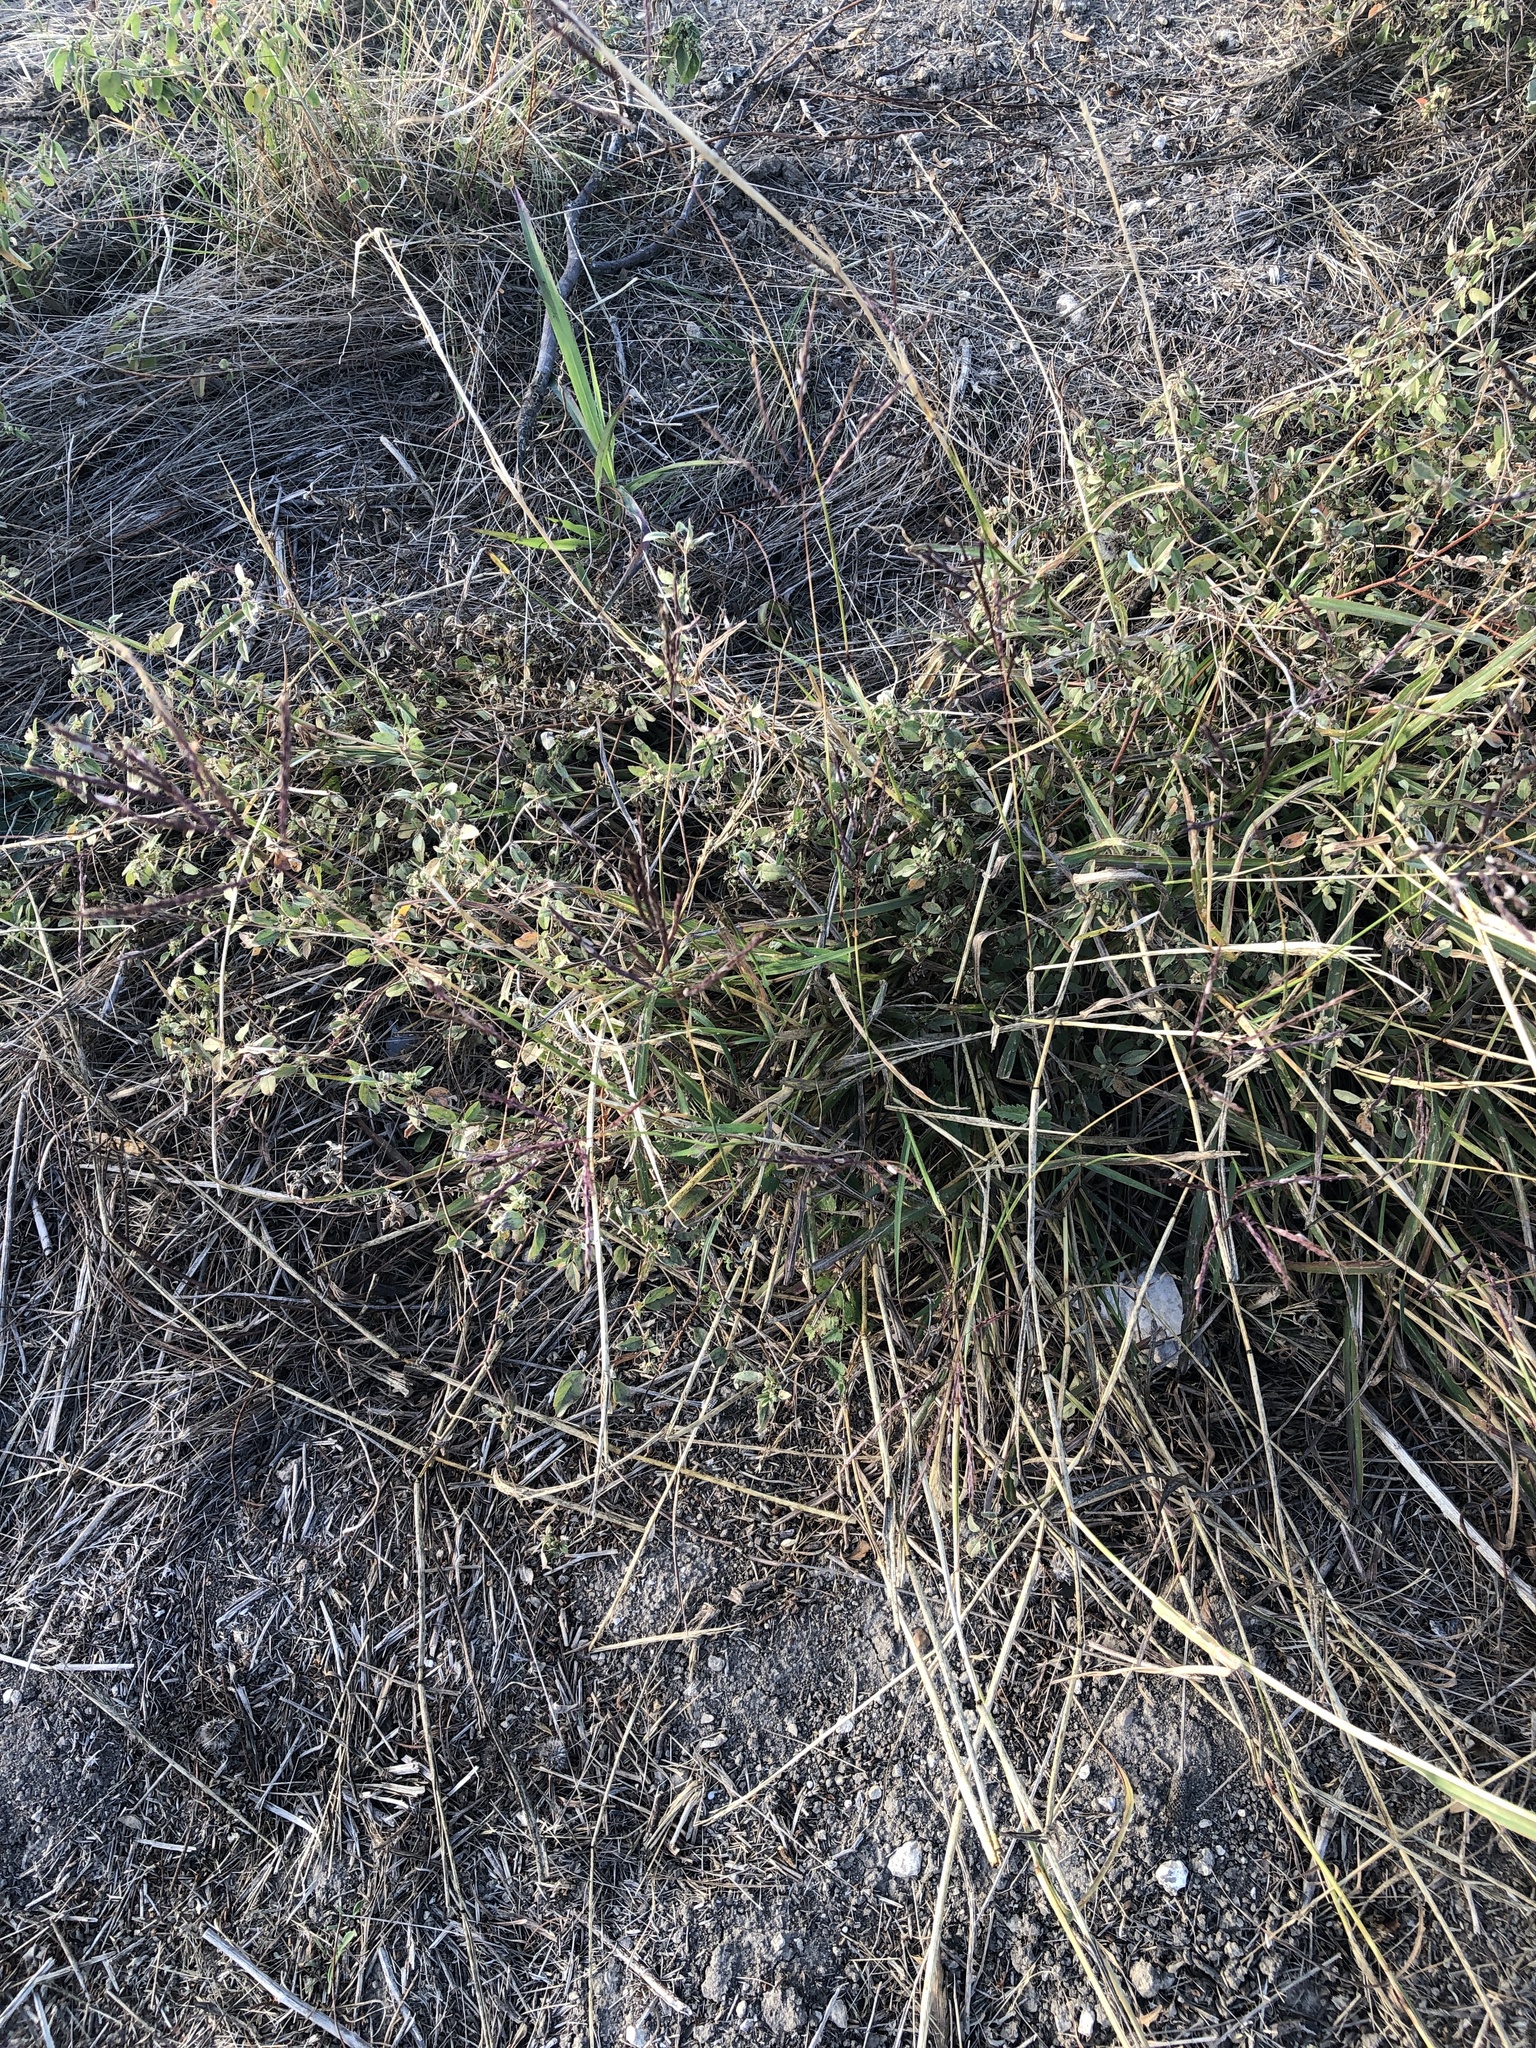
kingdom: Plantae
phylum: Tracheophyta
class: Liliopsida
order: Poales
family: Poaceae
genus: Bothriochloa
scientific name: Bothriochloa ischaemum
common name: Yellow bluestem
